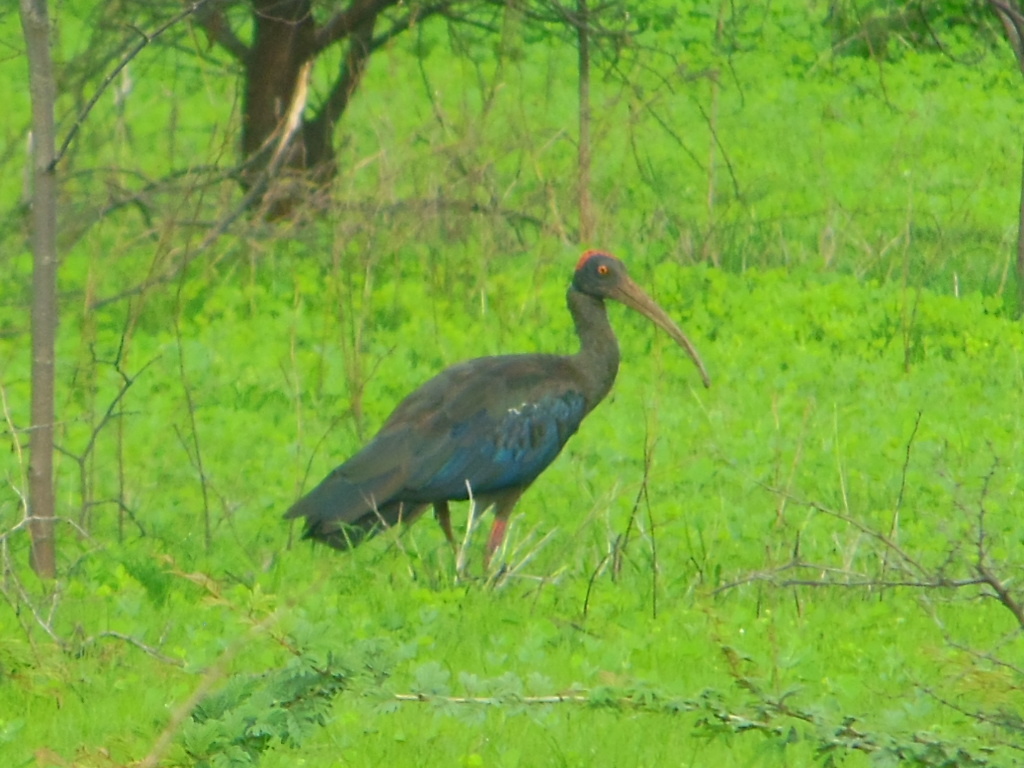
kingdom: Animalia
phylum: Chordata
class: Aves
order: Pelecaniformes
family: Threskiornithidae
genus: Pseudibis
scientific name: Pseudibis papillosa
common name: Red-naped ibis
